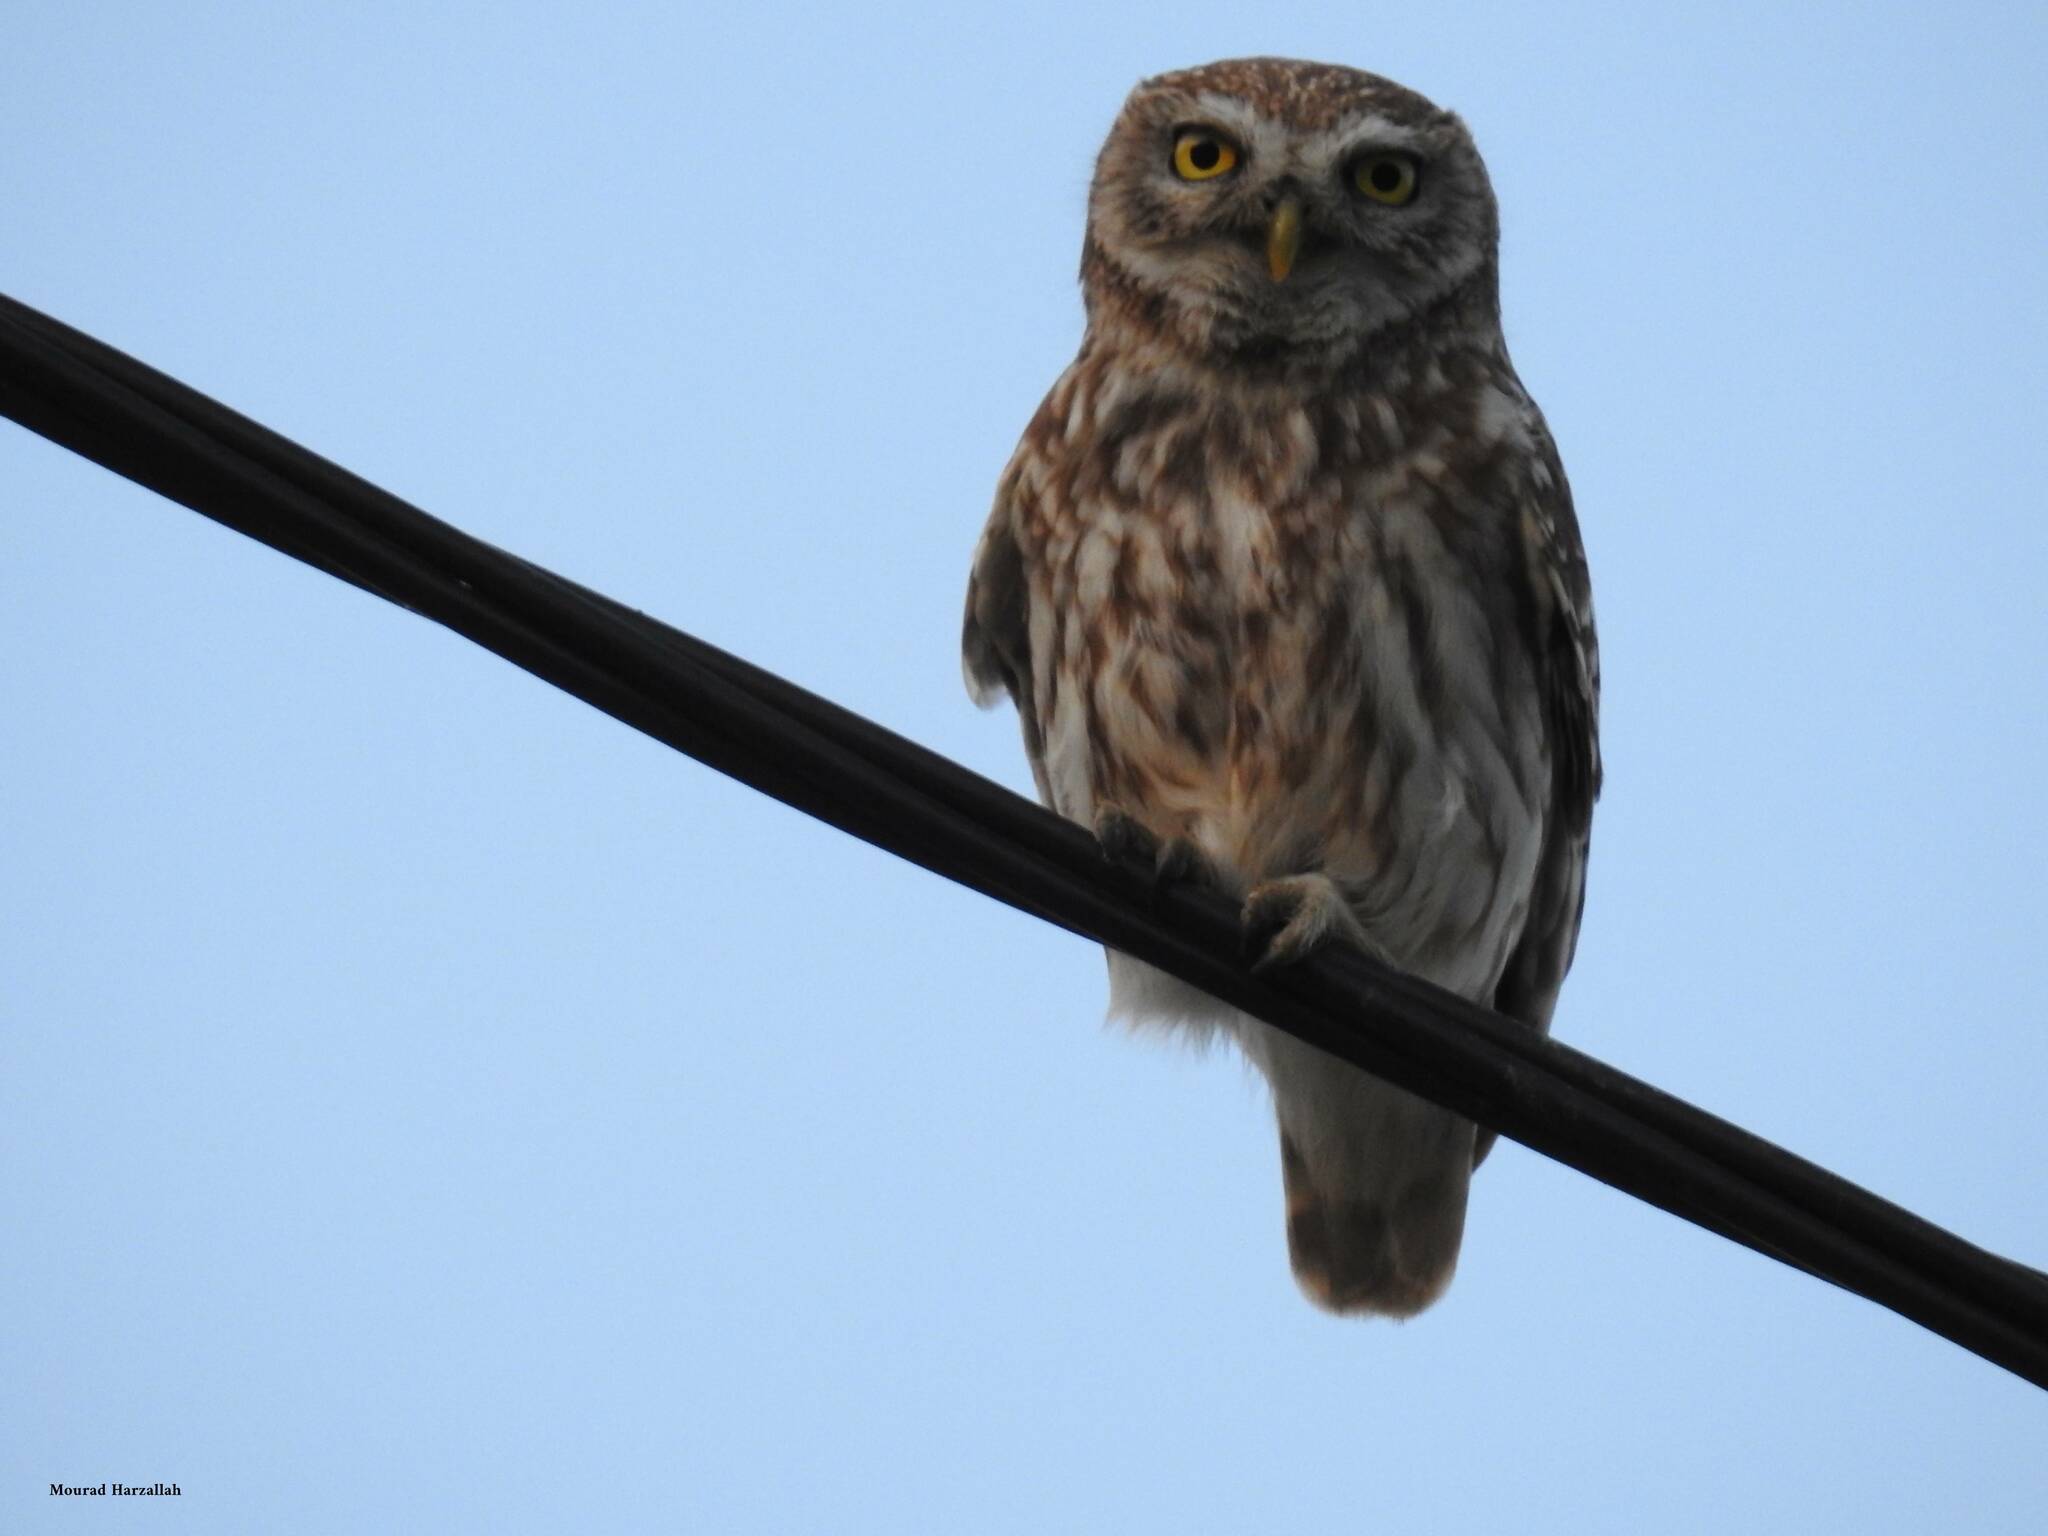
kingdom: Animalia
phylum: Chordata
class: Aves
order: Strigiformes
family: Strigidae
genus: Athene
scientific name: Athene noctua
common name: Little owl
